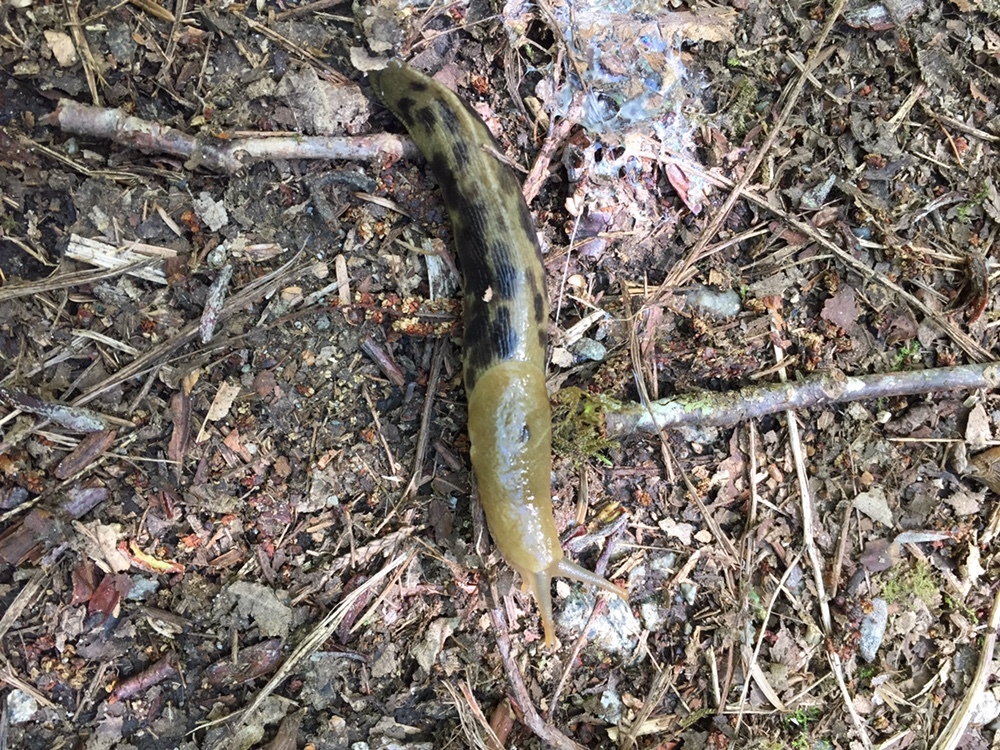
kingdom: Animalia
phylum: Mollusca
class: Gastropoda
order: Stylommatophora
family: Ariolimacidae
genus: Ariolimax
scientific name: Ariolimax columbianus
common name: Pacific banana slug
